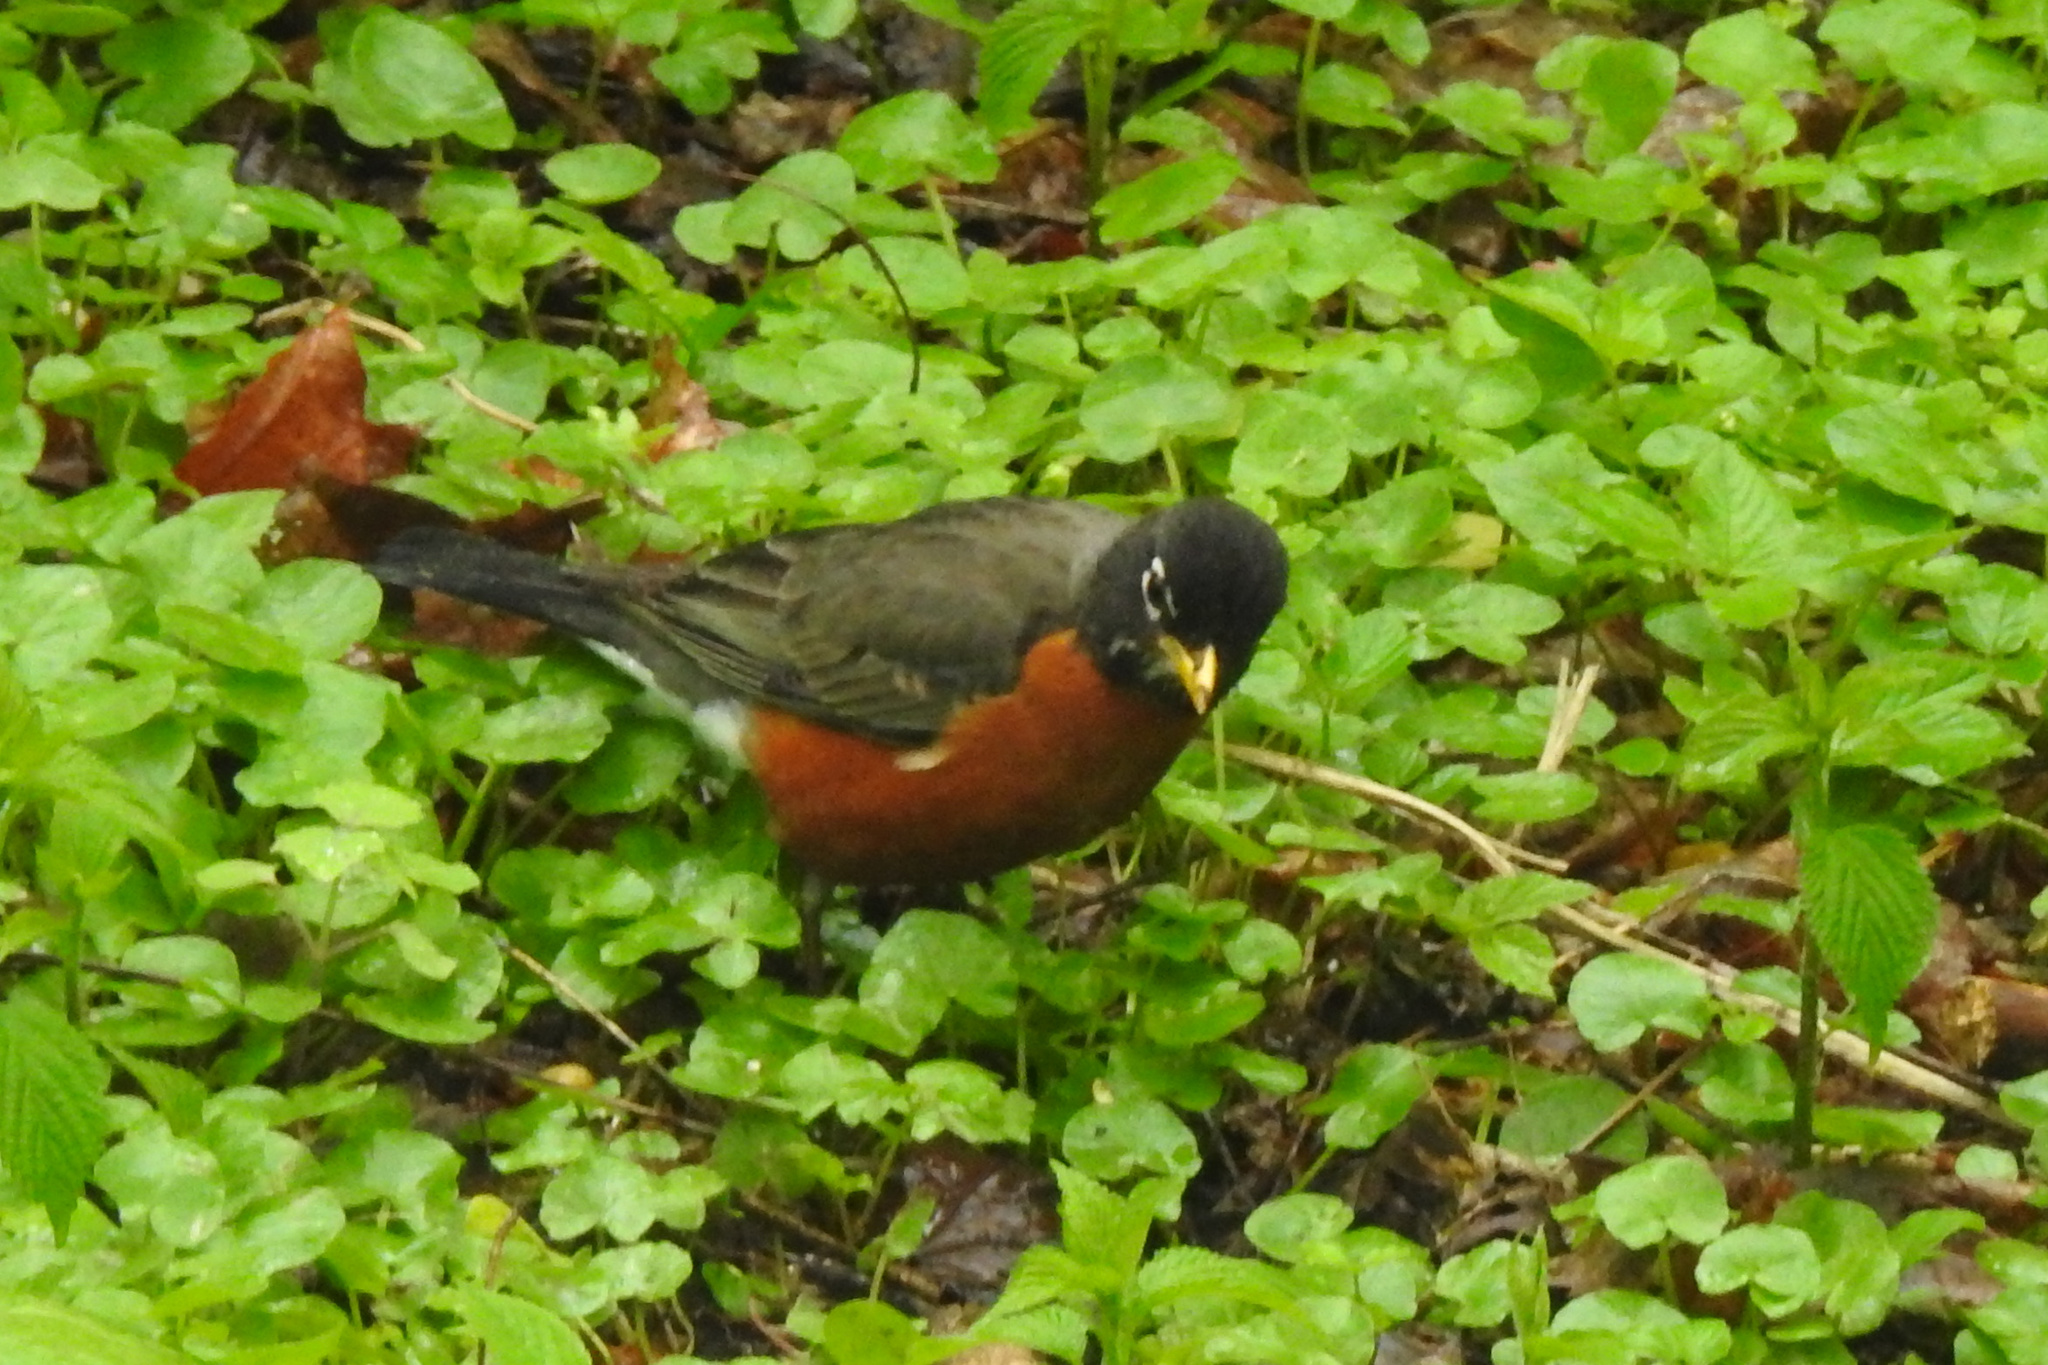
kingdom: Animalia
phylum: Chordata
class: Aves
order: Passeriformes
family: Turdidae
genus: Turdus
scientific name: Turdus migratorius
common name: American robin
